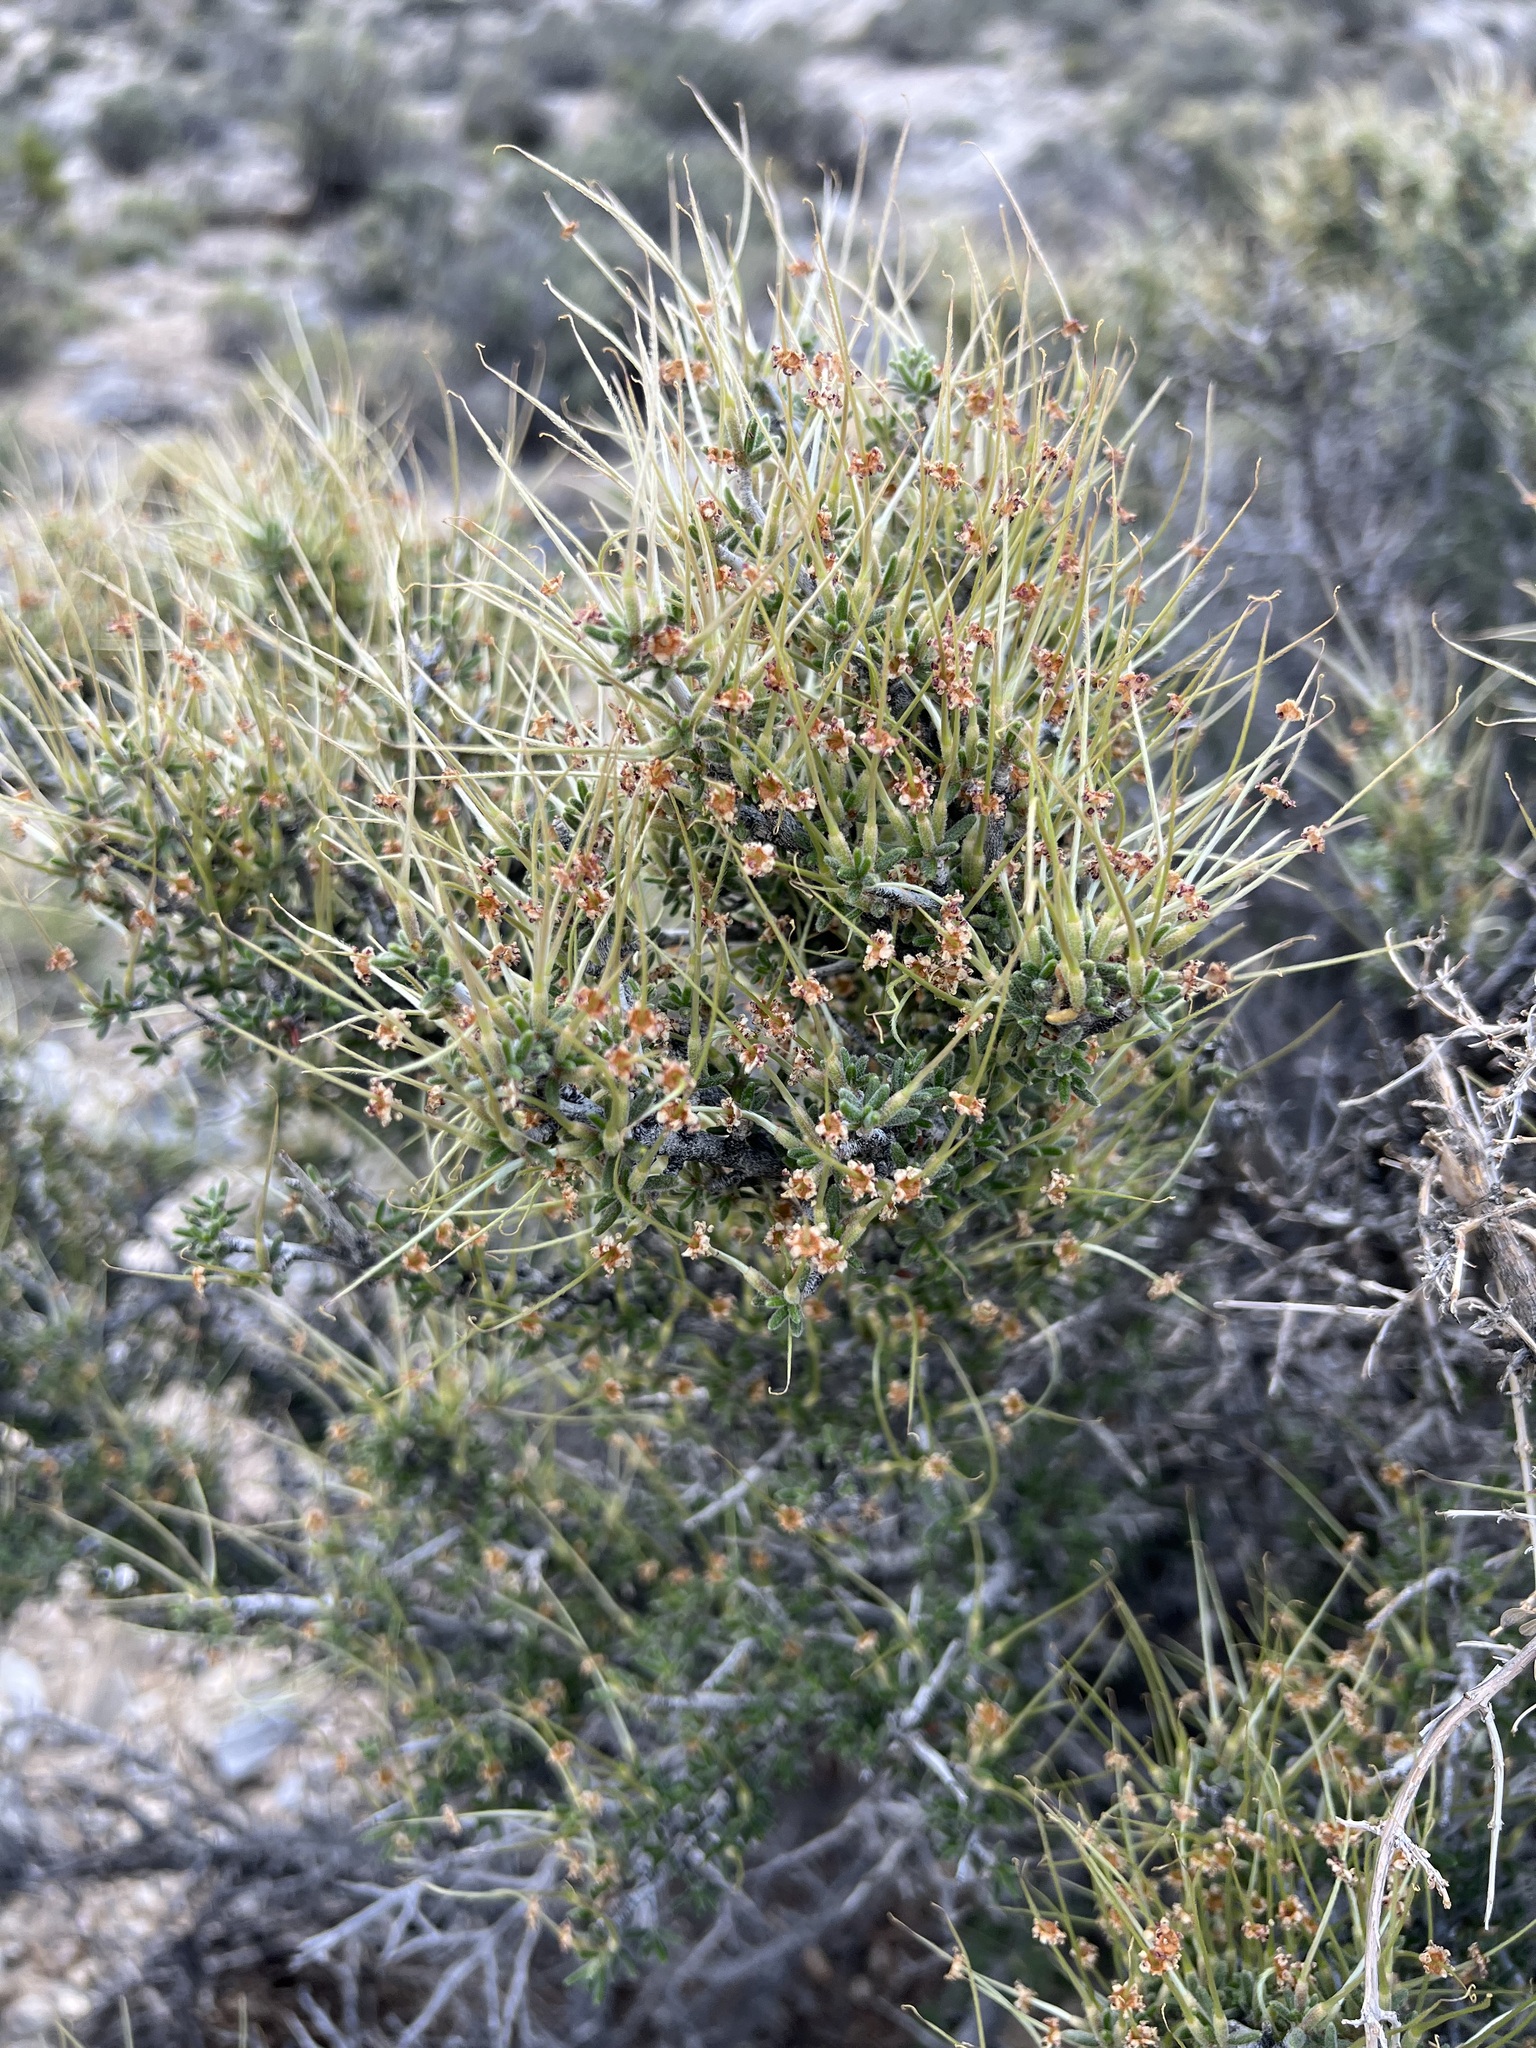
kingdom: Plantae
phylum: Tracheophyta
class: Magnoliopsida
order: Rosales
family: Rosaceae
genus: Cercocarpus
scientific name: Cercocarpus intricatus
